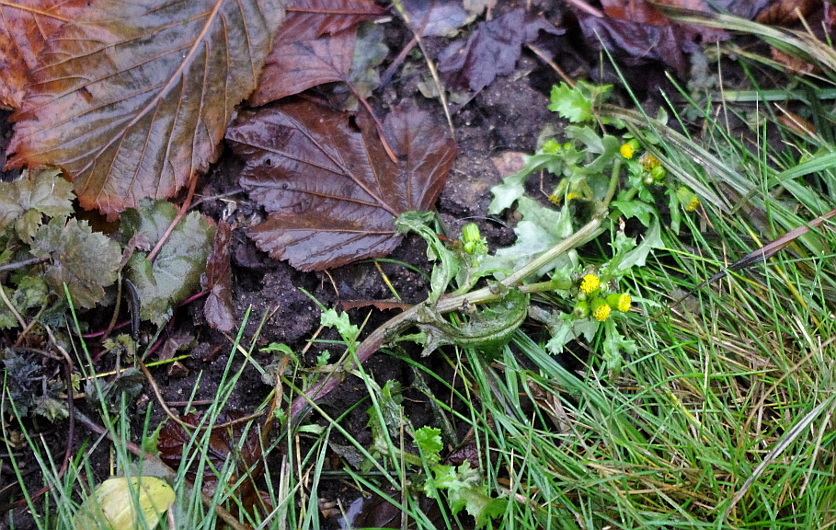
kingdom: Plantae
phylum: Tracheophyta
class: Magnoliopsida
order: Asterales
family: Asteraceae
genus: Senecio
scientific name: Senecio vulgaris
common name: Old-man-in-the-spring
